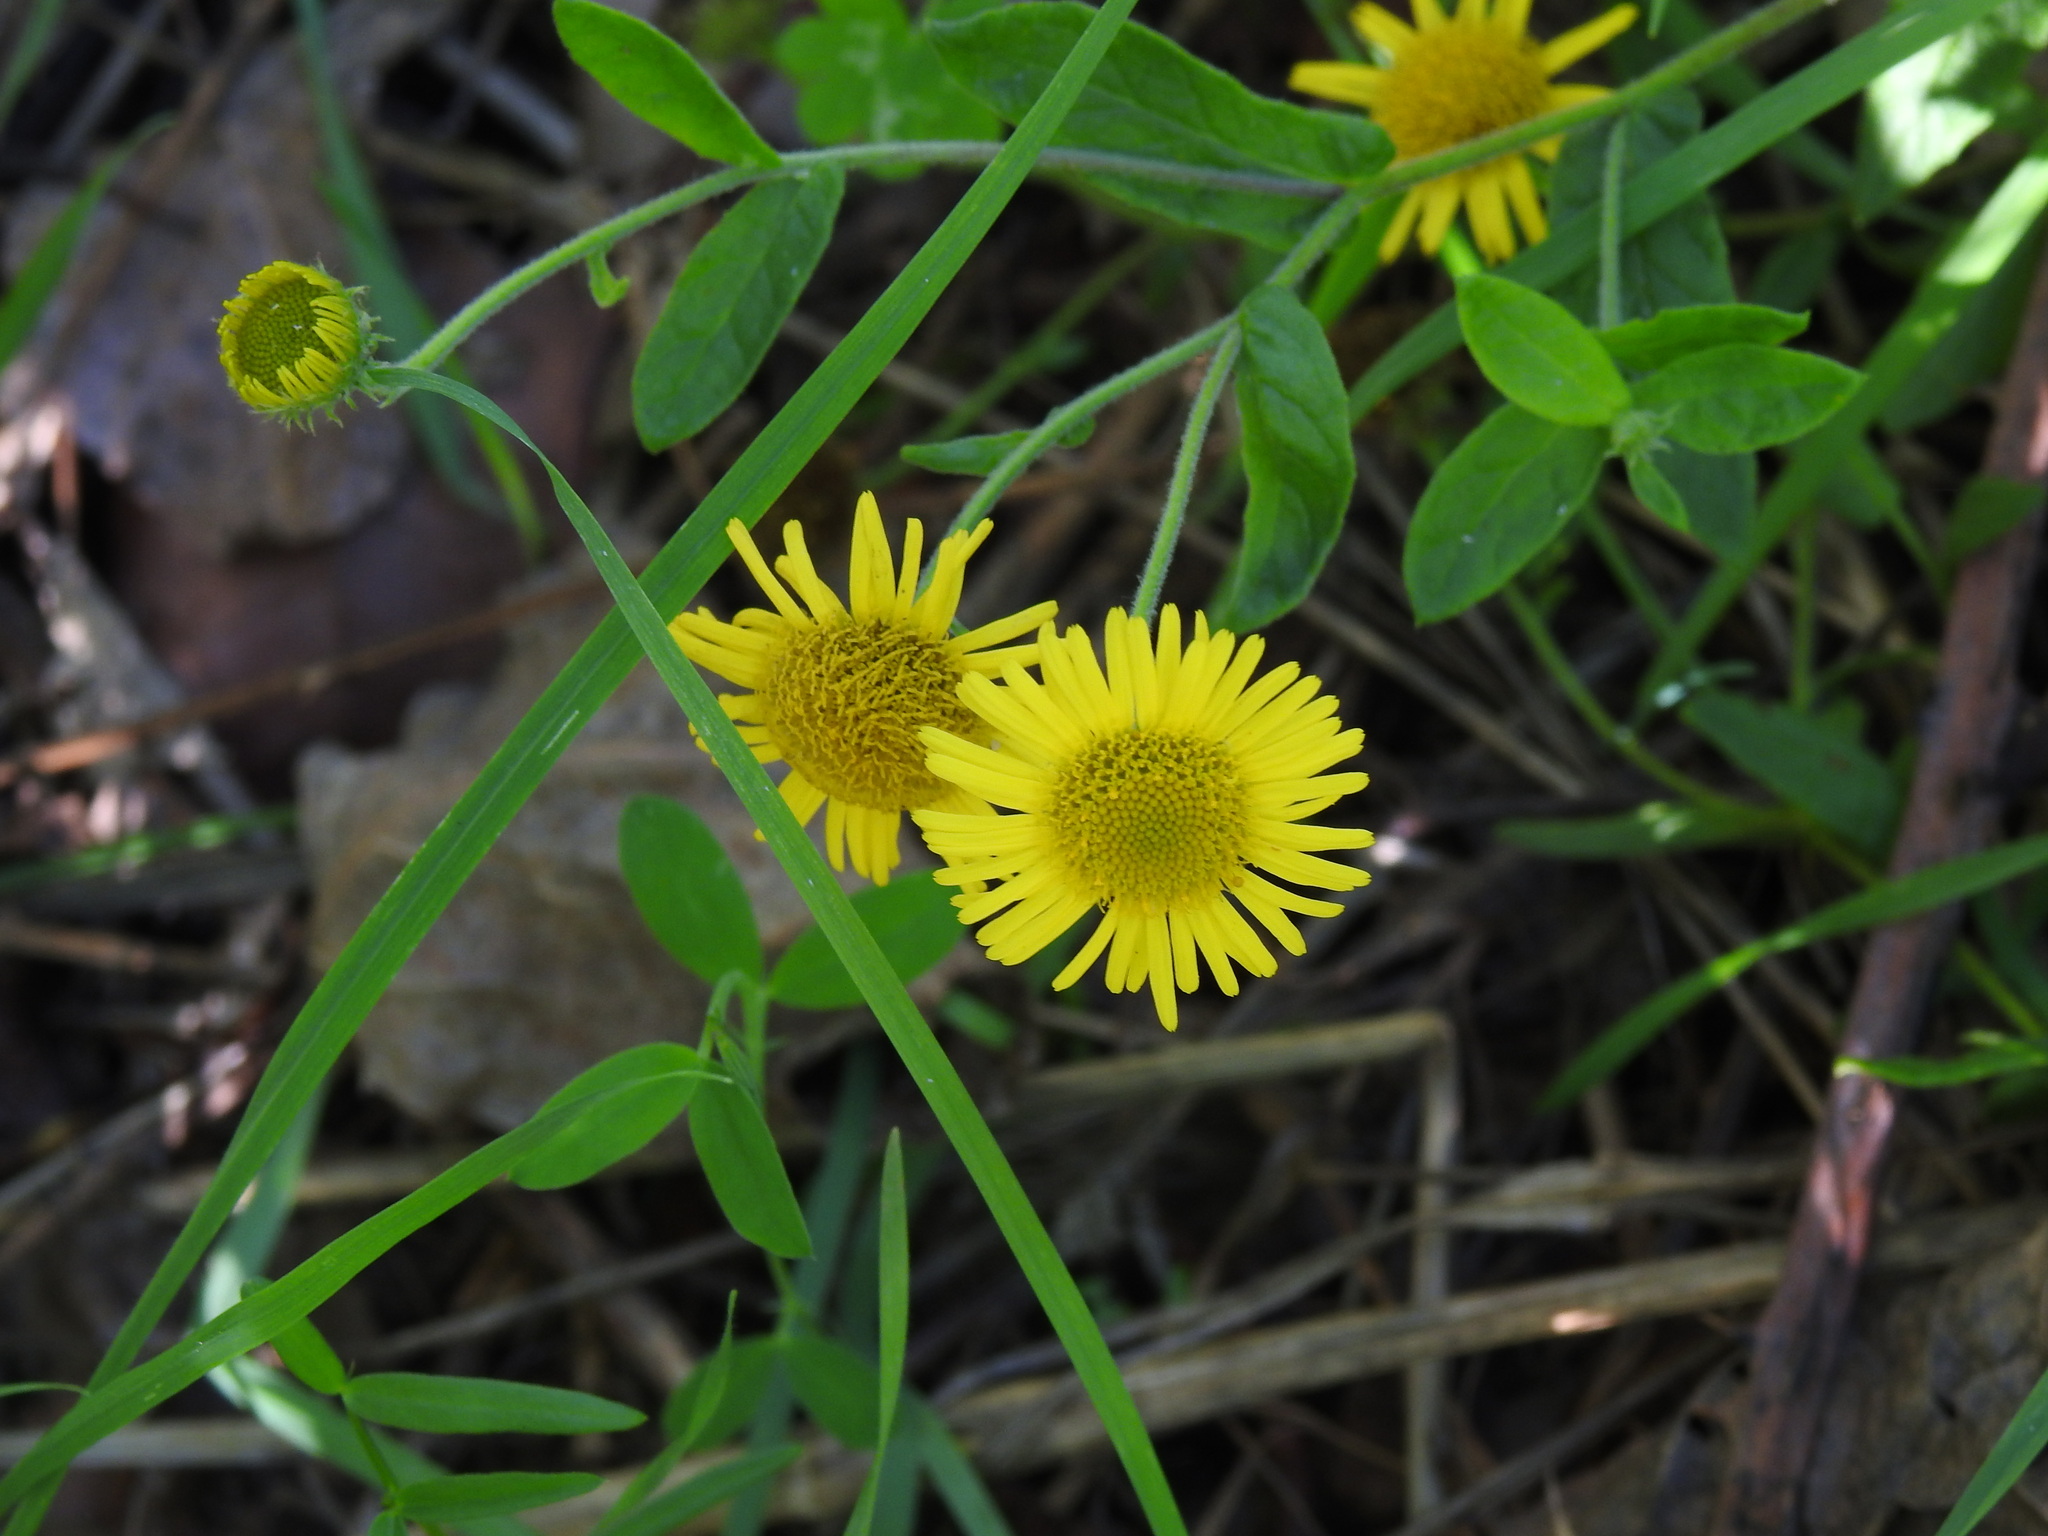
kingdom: Plantae
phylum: Tracheophyta
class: Magnoliopsida
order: Asterales
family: Asteraceae
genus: Pulicaria
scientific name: Pulicaria dysenterica
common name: Common fleabane
